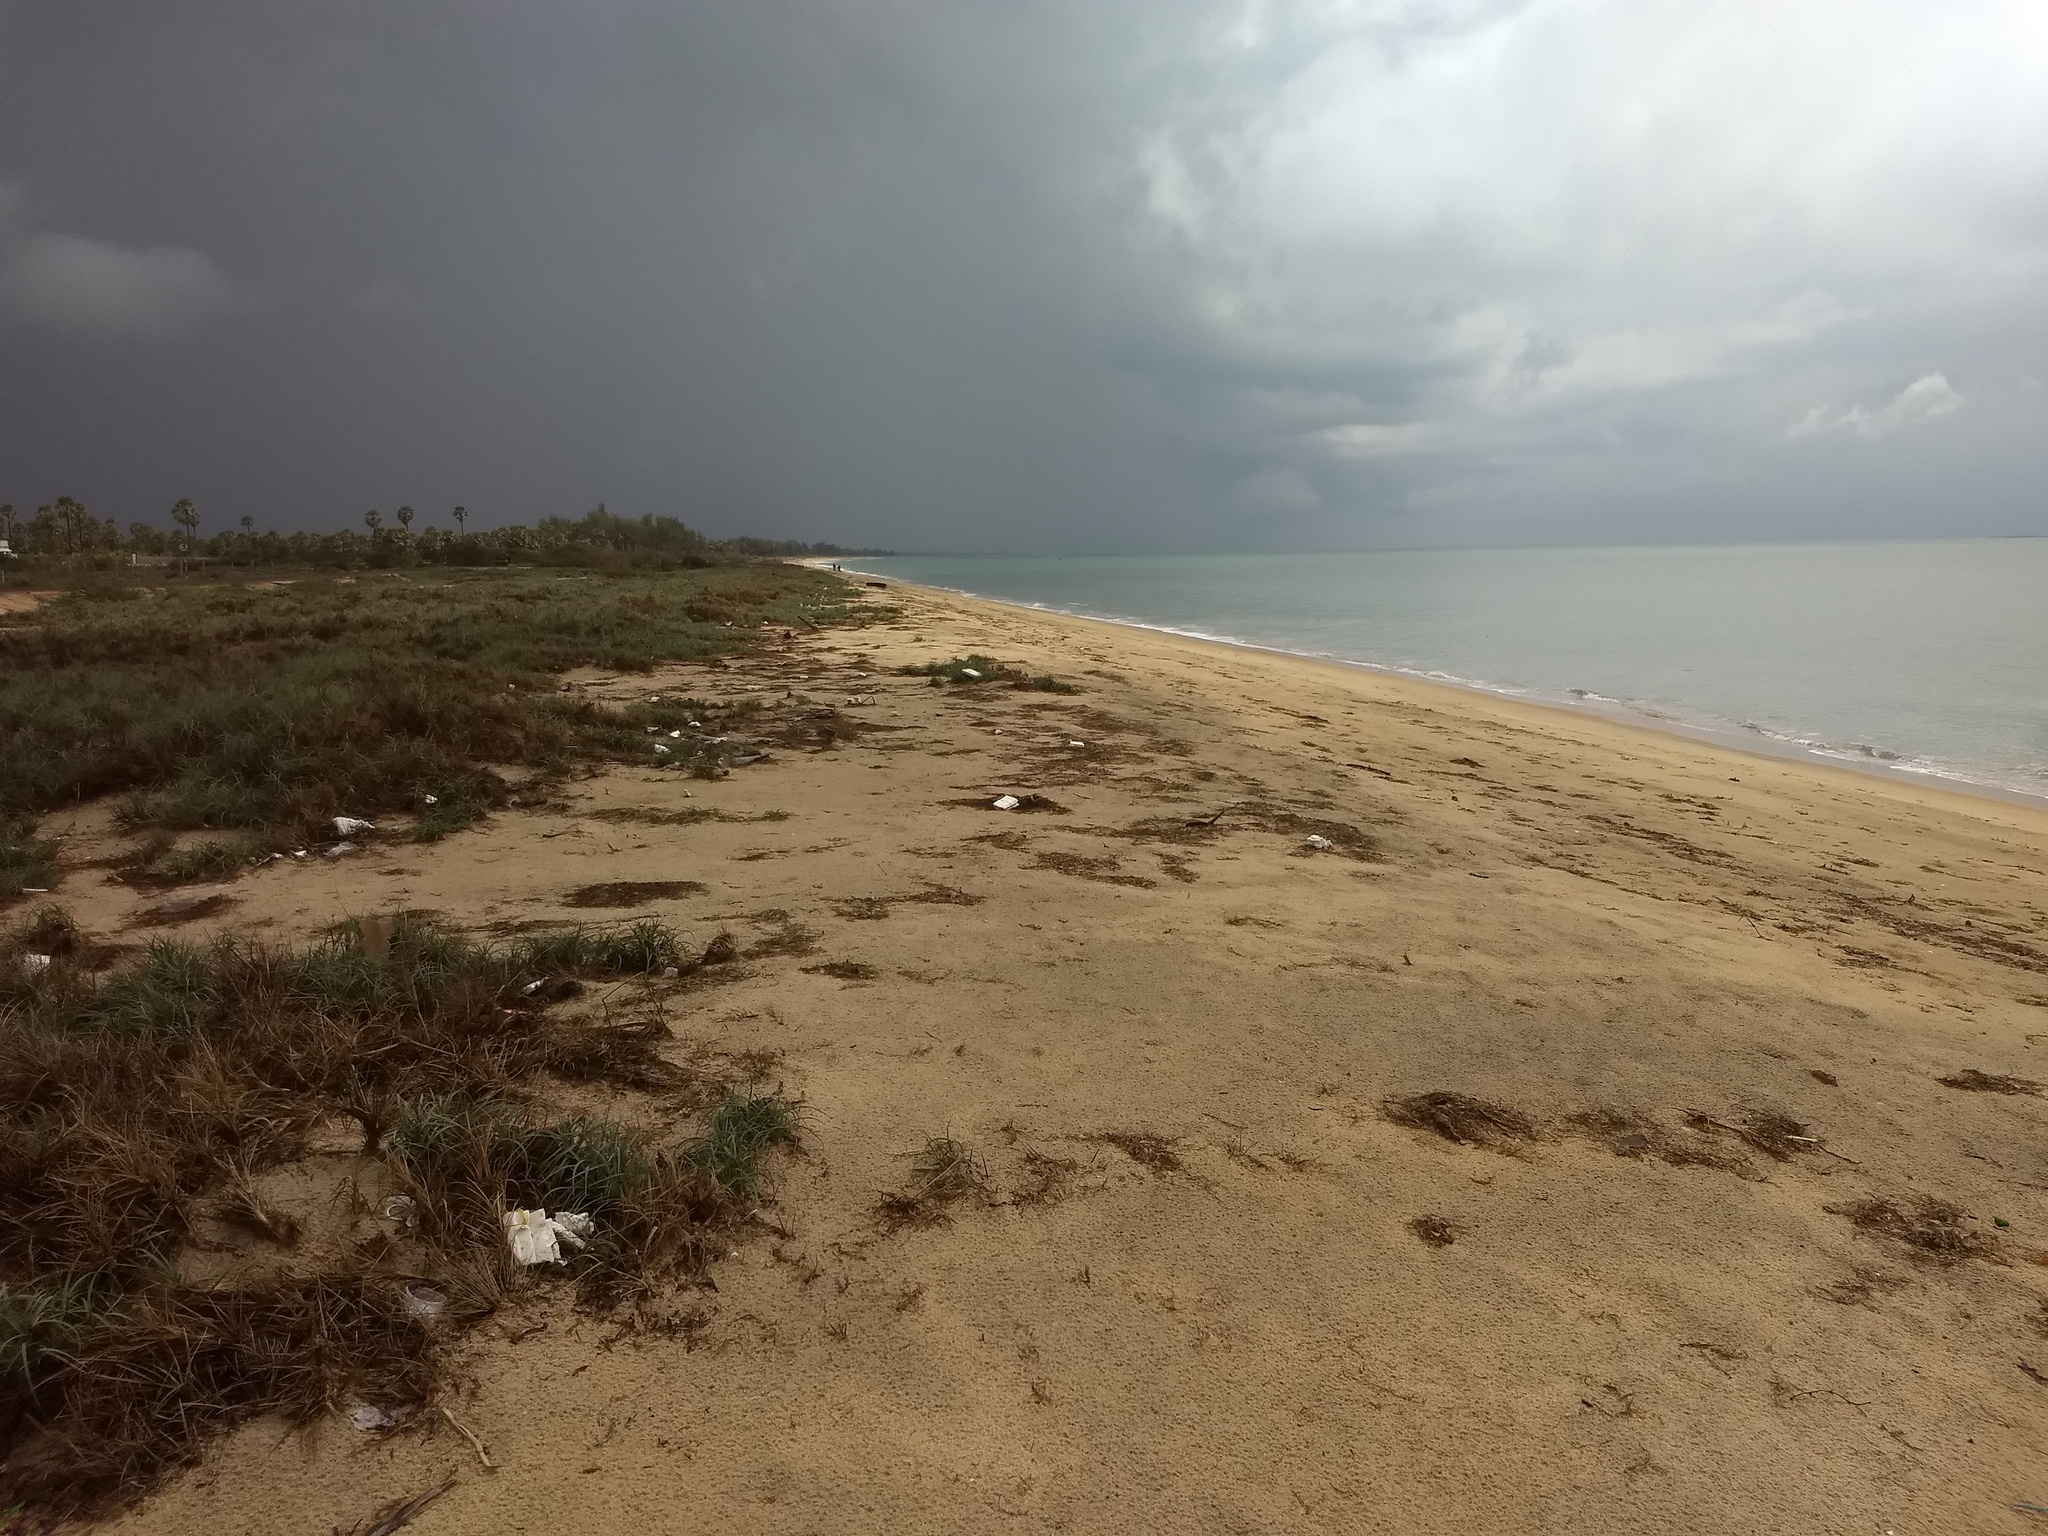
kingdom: Plantae
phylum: Tracheophyta
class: Liliopsida
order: Poales
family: Poaceae
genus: Spinifex
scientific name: Spinifex littoreus
